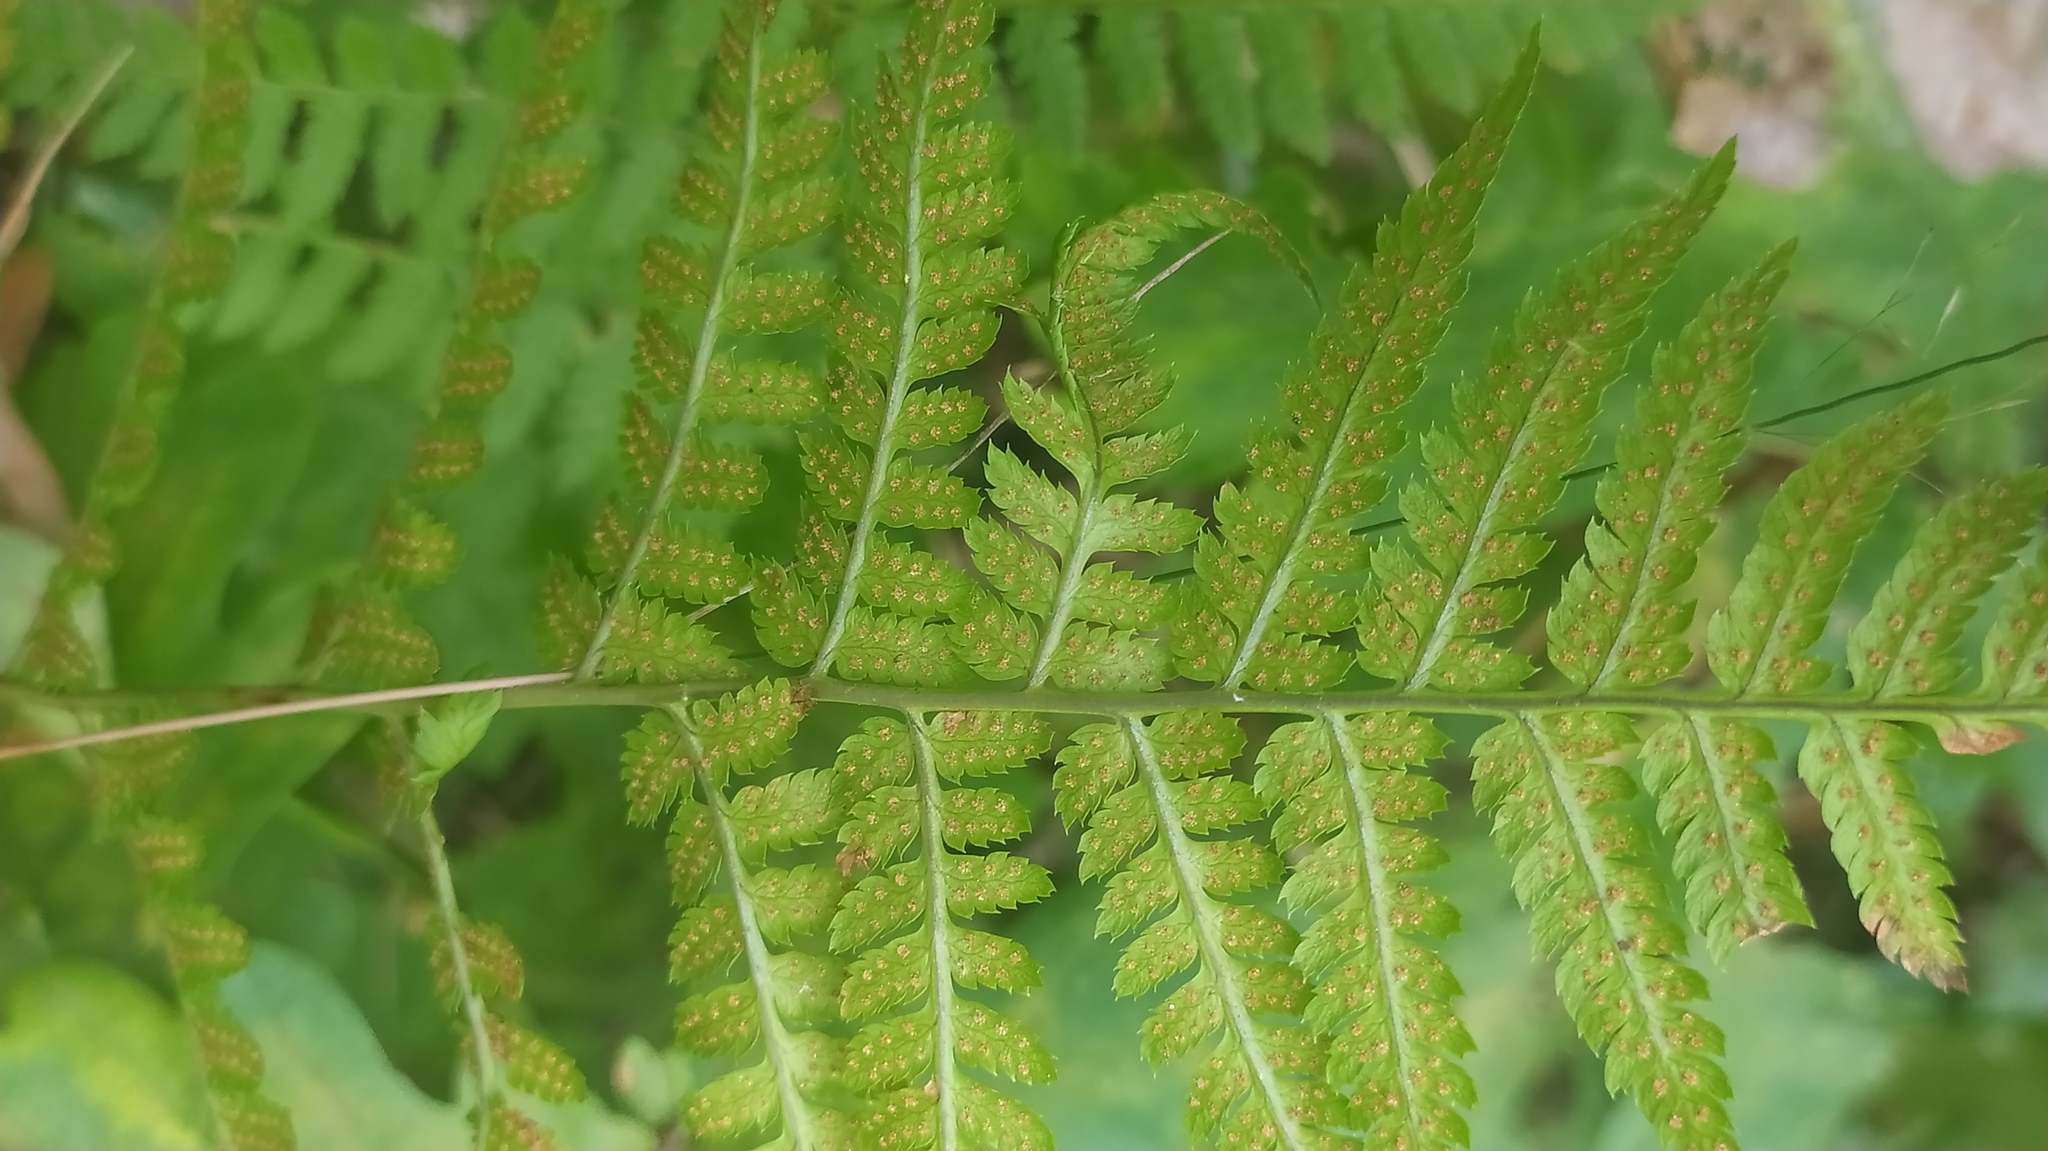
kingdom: Plantae
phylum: Tracheophyta
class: Polypodiopsida
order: Polypodiales
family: Dryopteridaceae
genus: Dryopteris
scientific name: Dryopteris carthusiana
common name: Narrow buckler-fern
